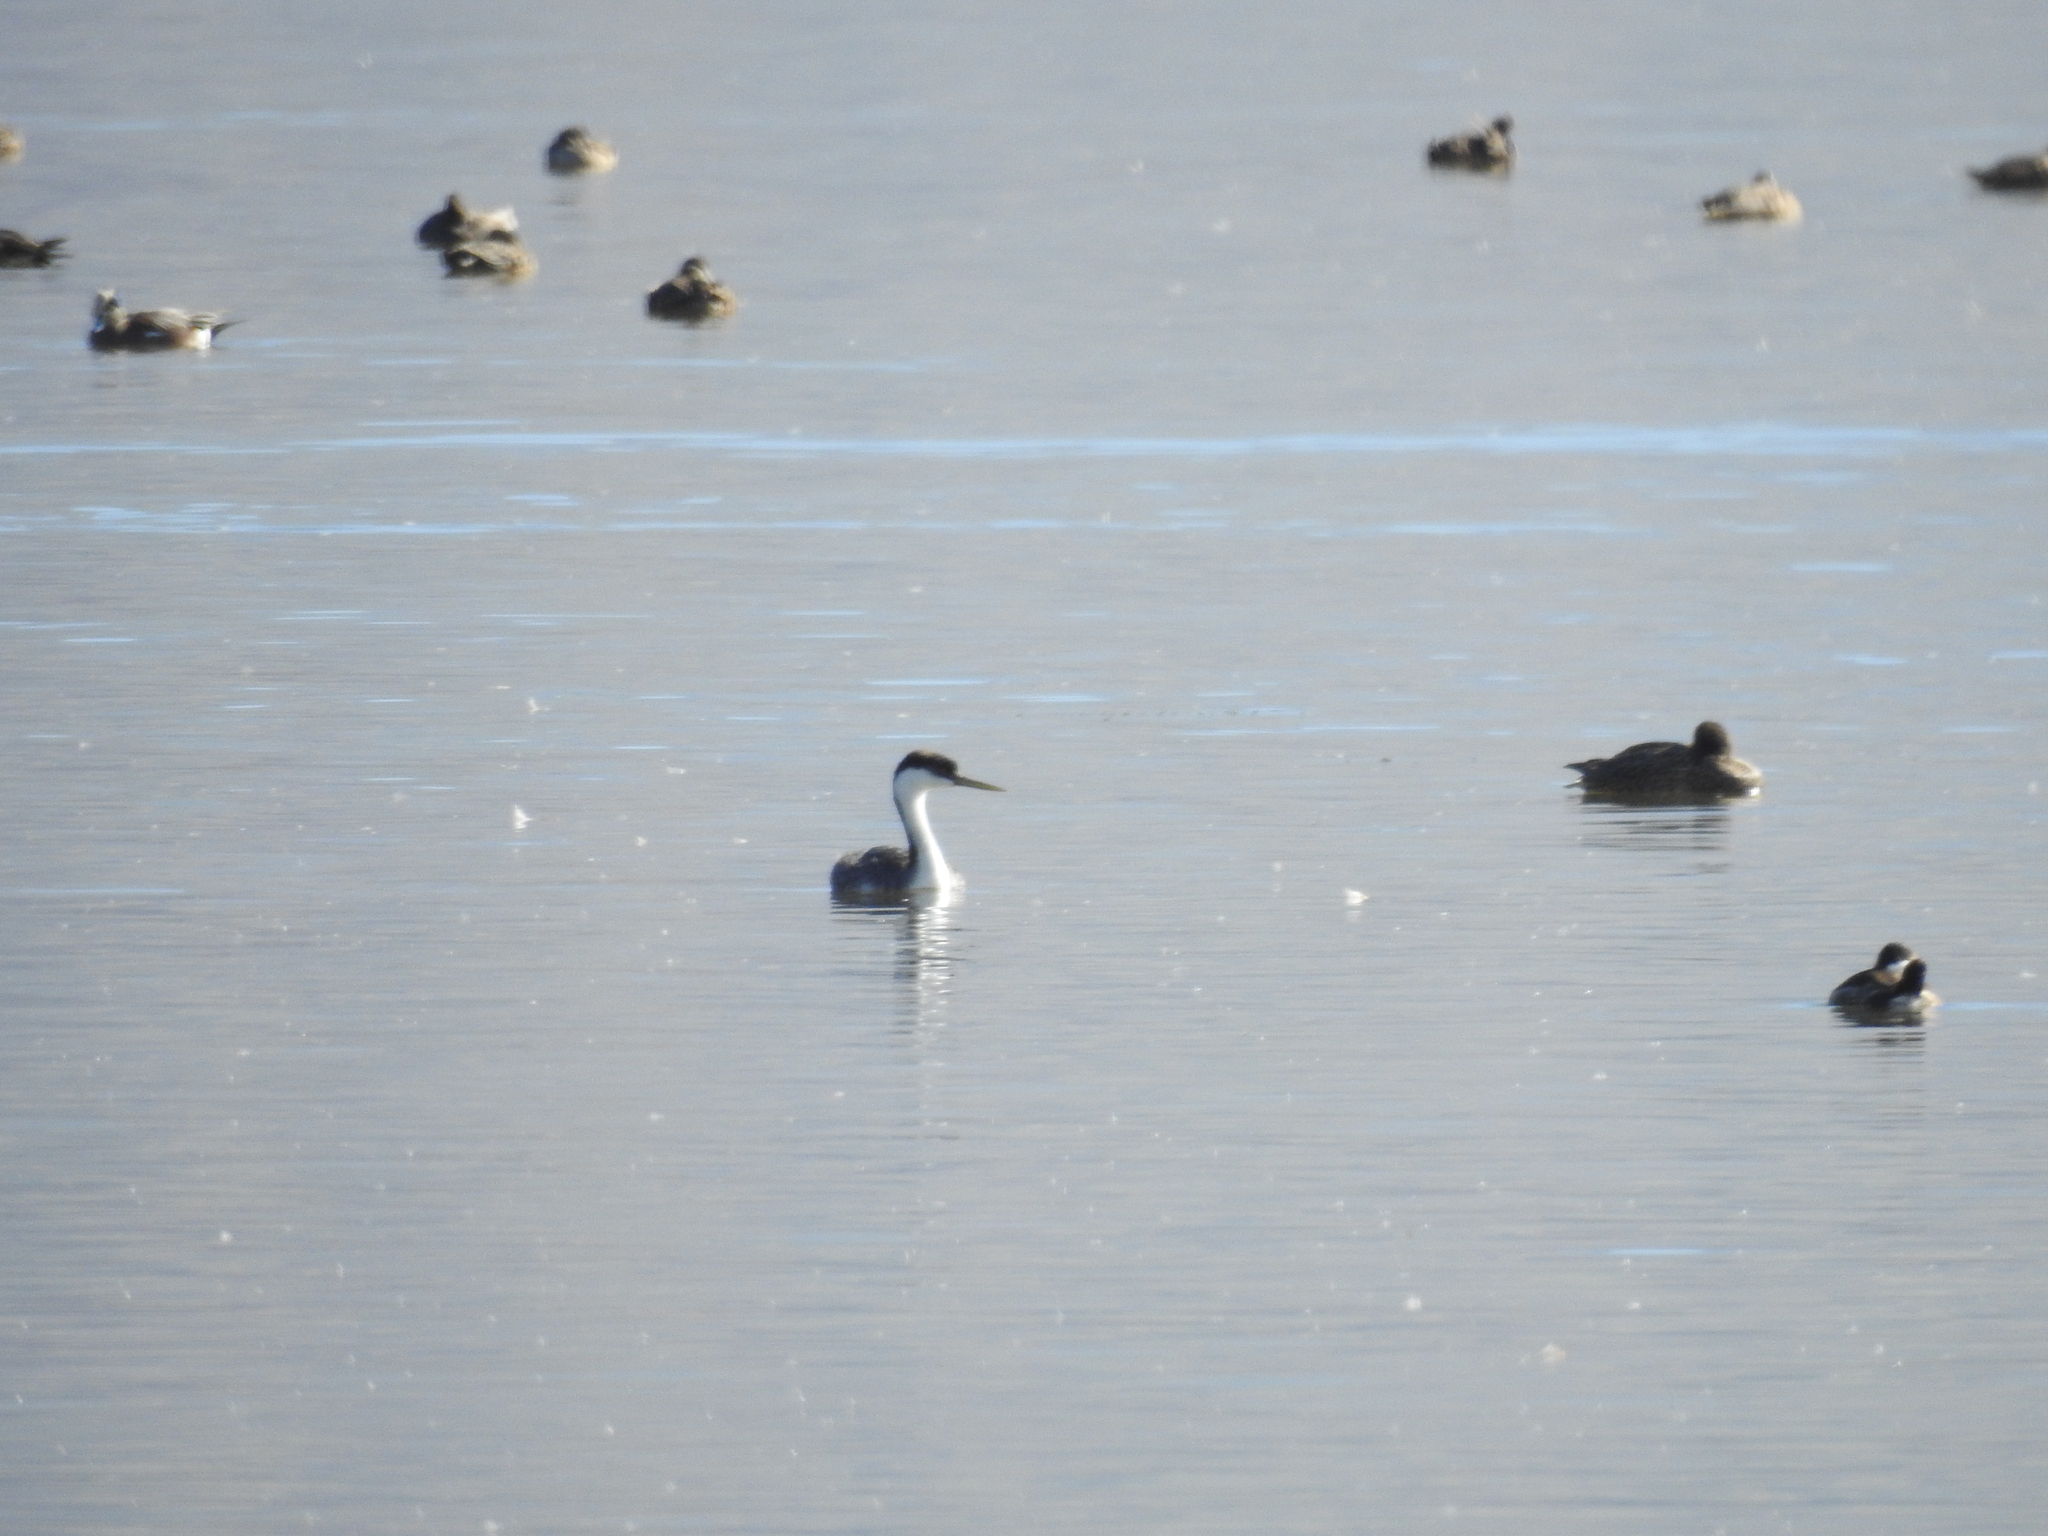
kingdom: Animalia
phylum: Chordata
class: Aves
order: Podicipediformes
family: Podicipedidae
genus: Aechmophorus
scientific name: Aechmophorus occidentalis
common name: Western grebe
